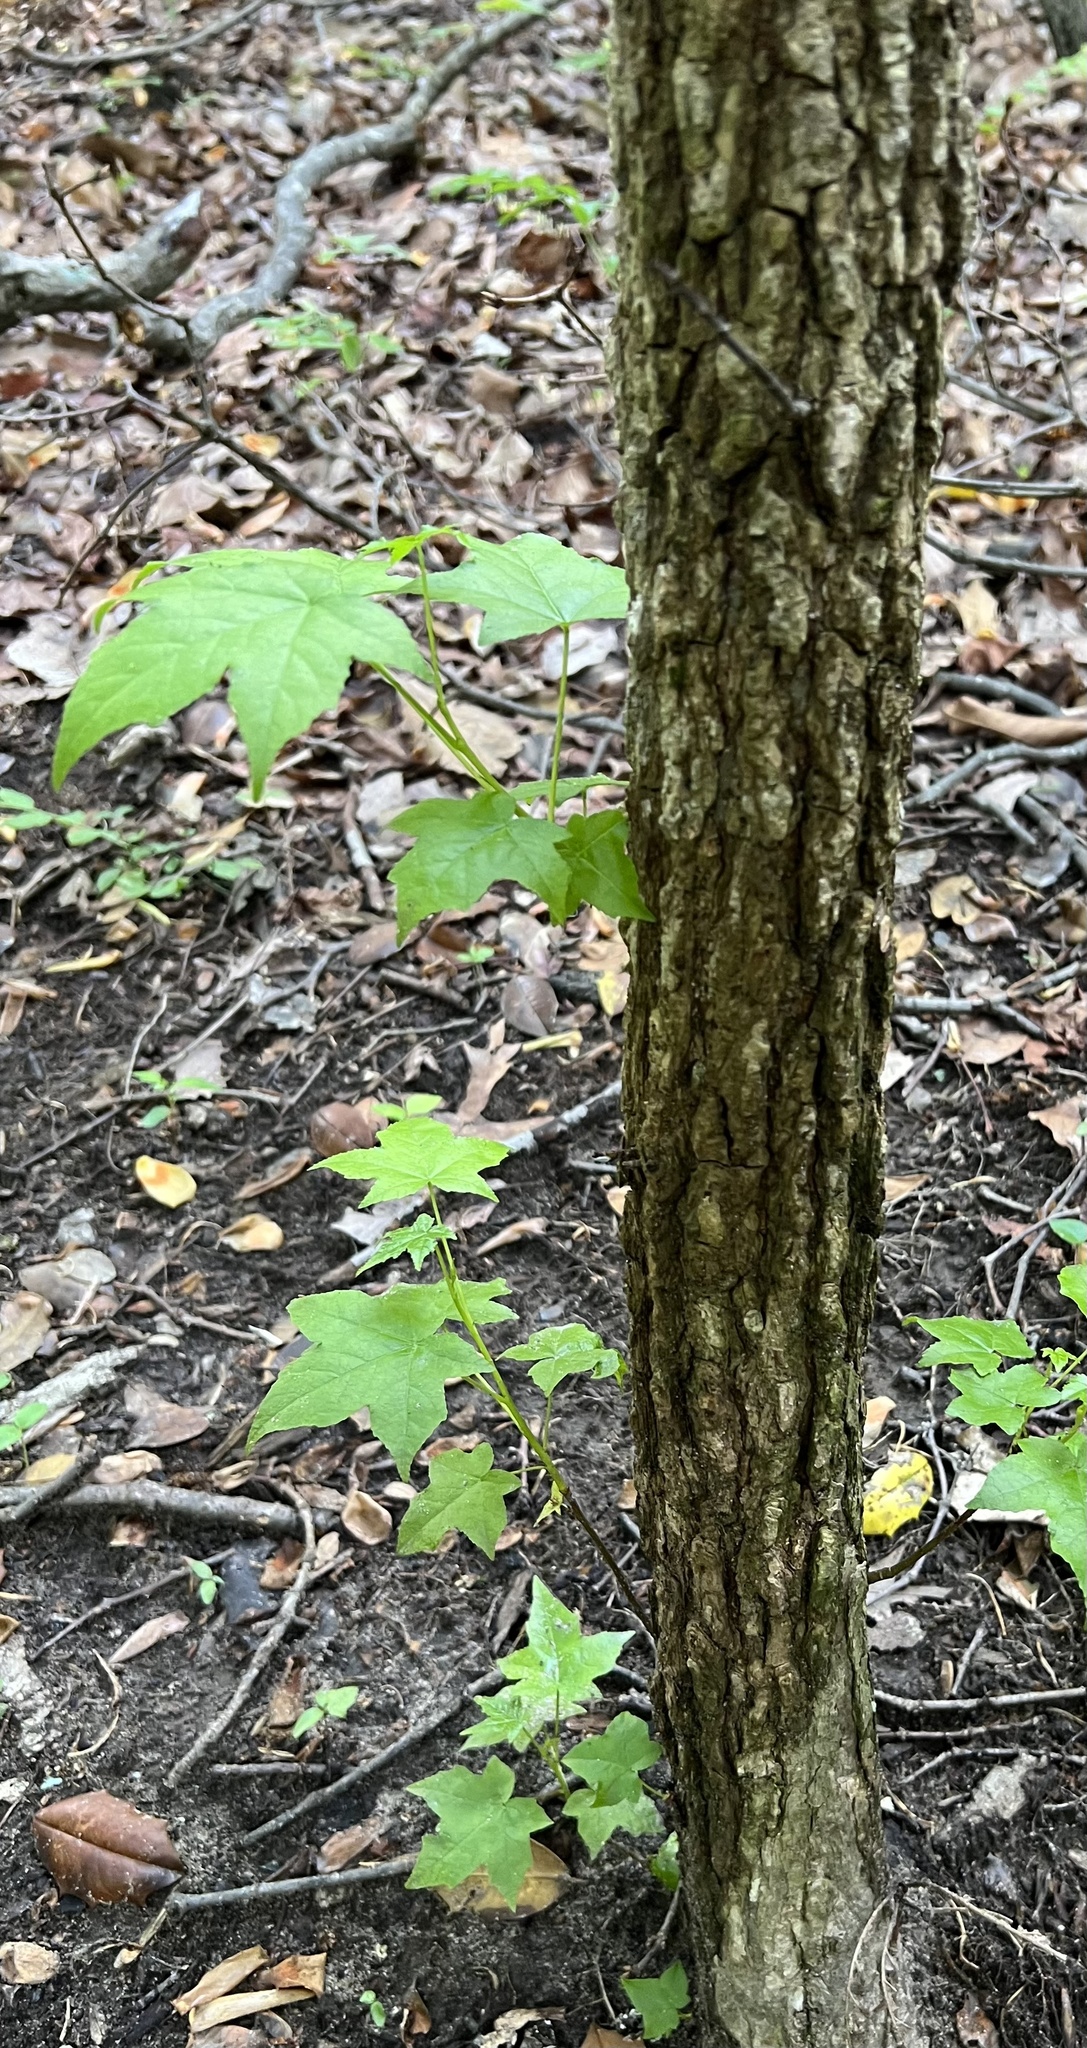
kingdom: Plantae
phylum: Tracheophyta
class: Magnoliopsida
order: Saxifragales
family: Altingiaceae
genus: Liquidambar
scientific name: Liquidambar styraciflua
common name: Sweet gum
